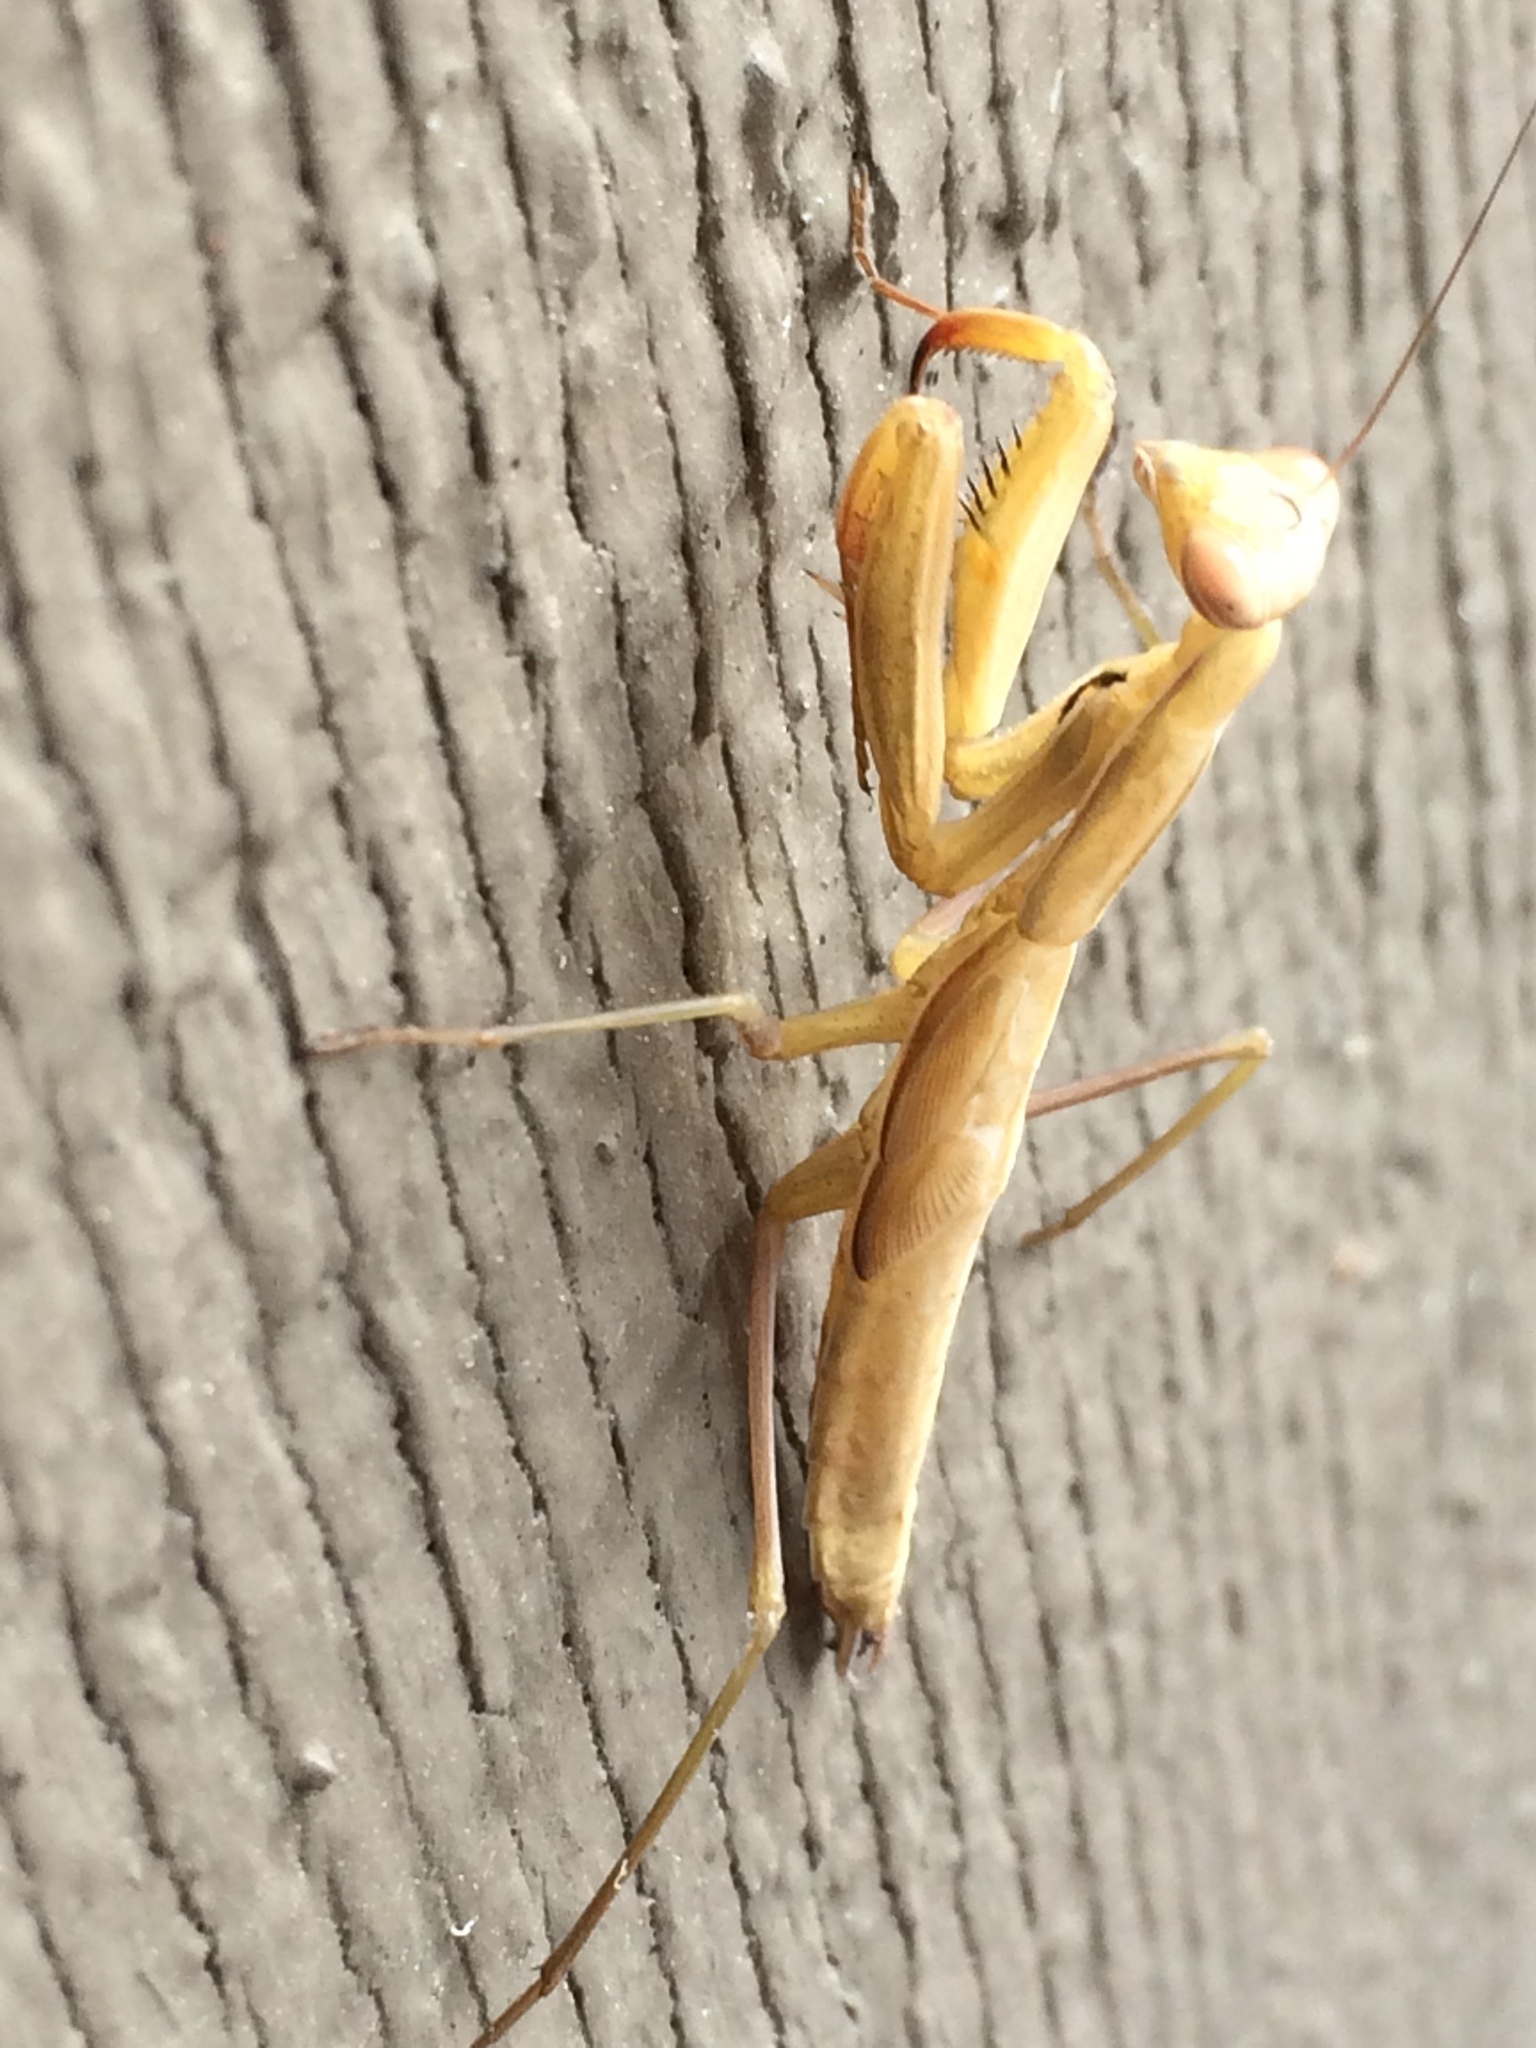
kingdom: Animalia
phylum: Arthropoda
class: Insecta
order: Mantodea
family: Mantidae
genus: Mantis
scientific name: Mantis religiosa
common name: Praying mantis
